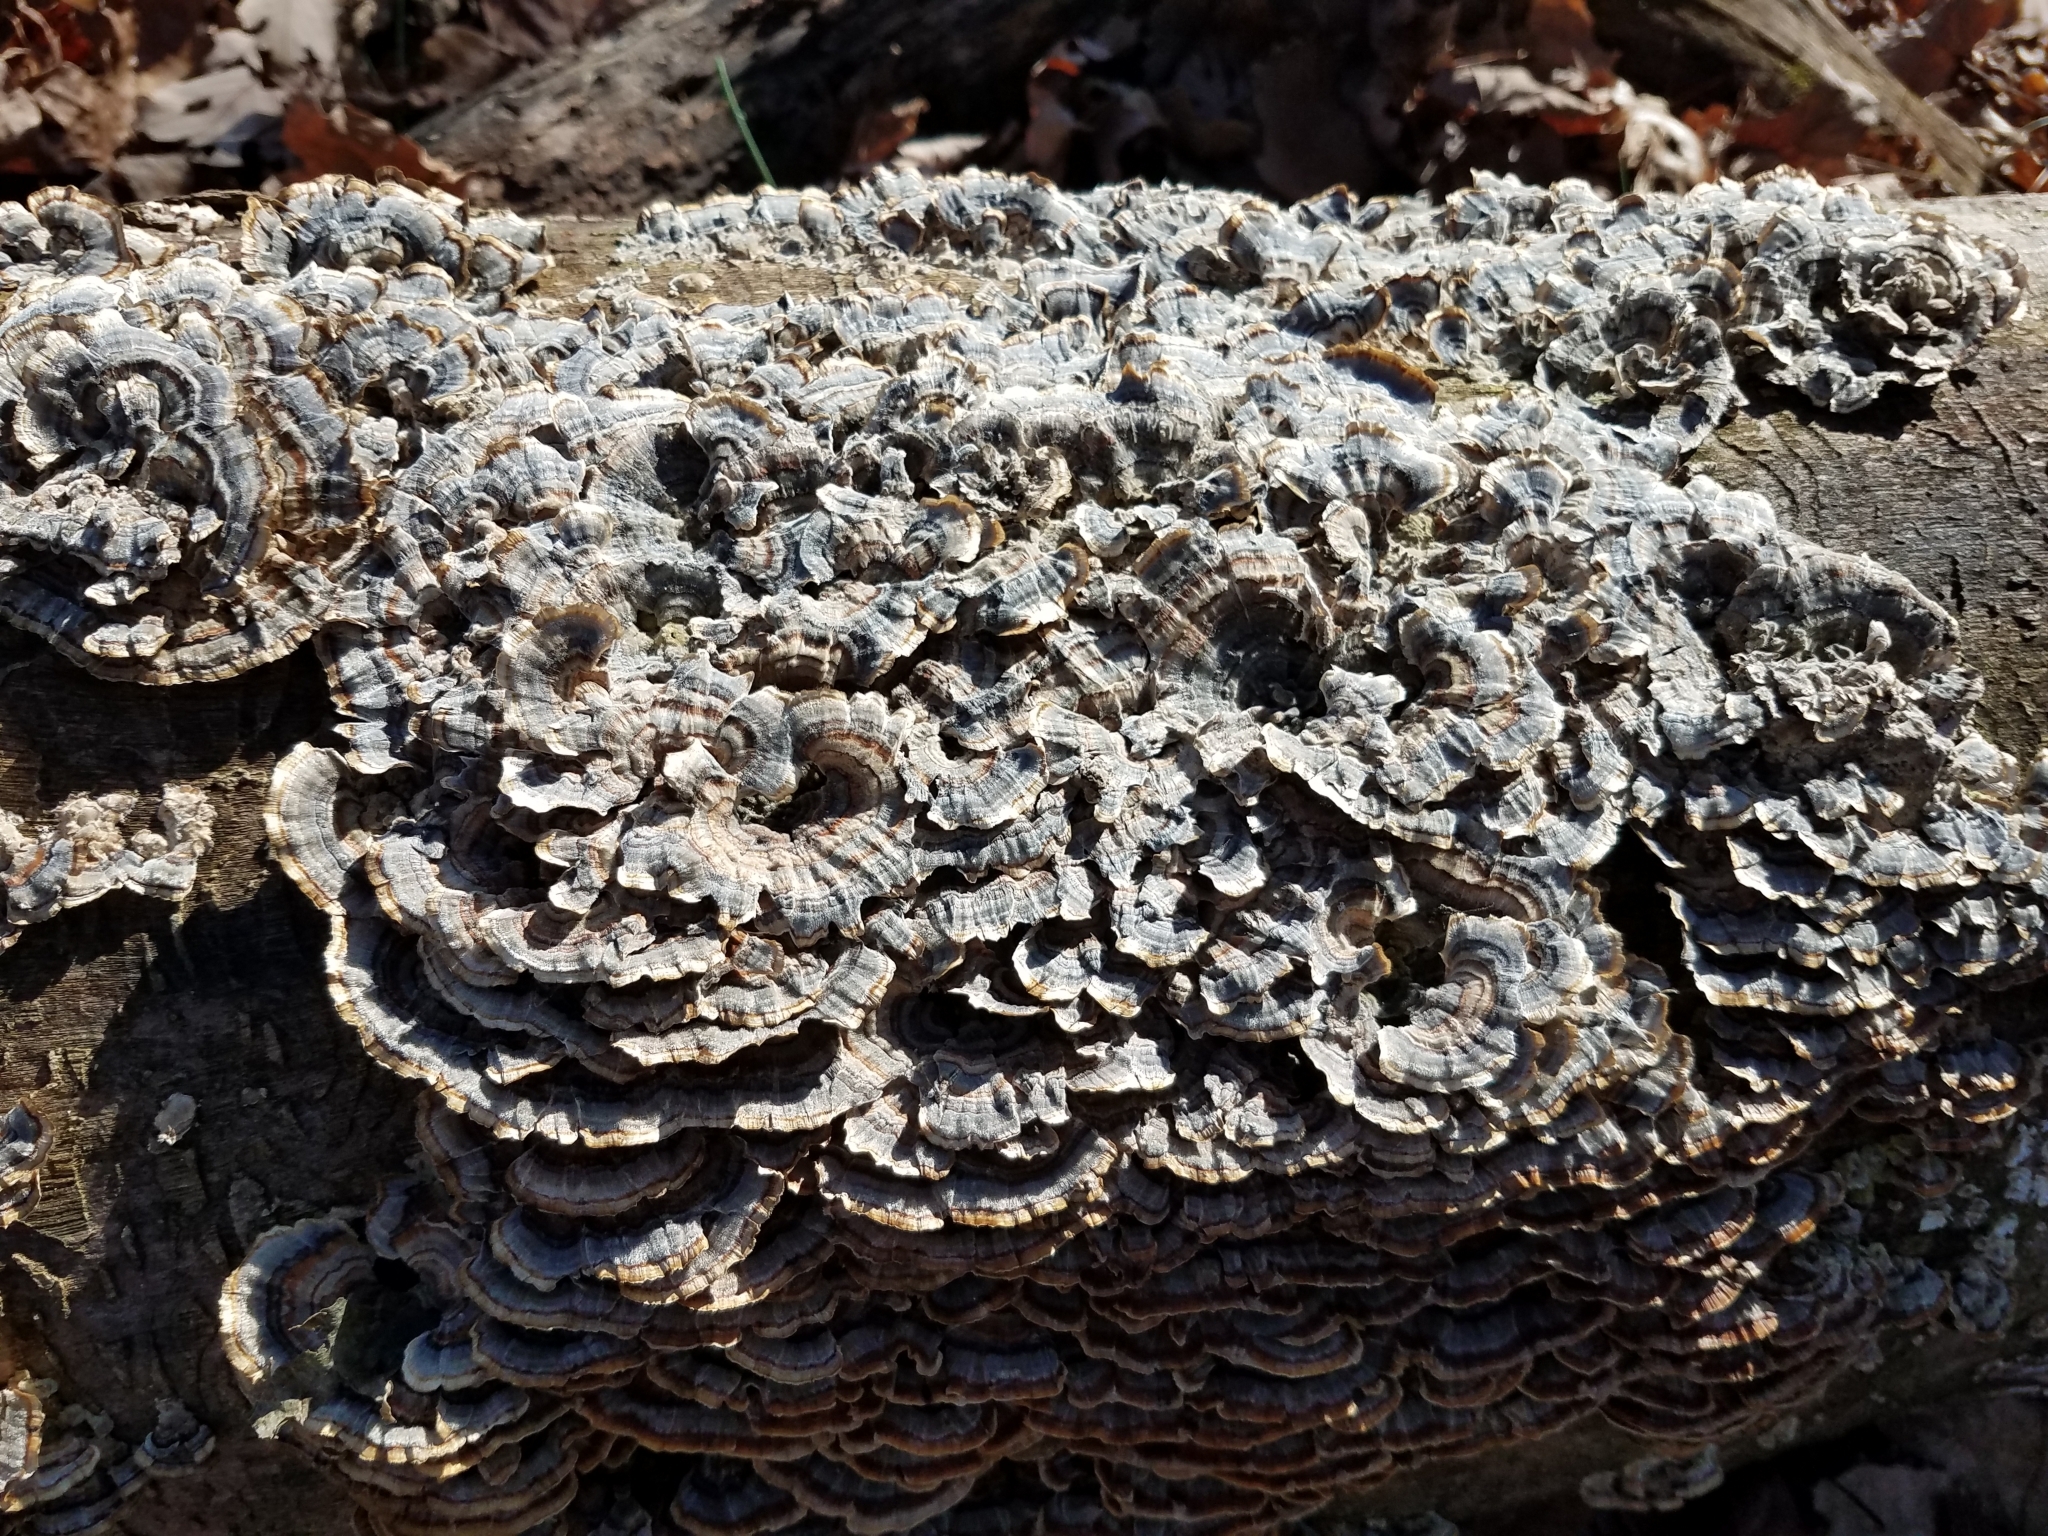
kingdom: Fungi
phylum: Basidiomycota
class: Agaricomycetes
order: Polyporales
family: Polyporaceae
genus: Trametes
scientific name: Trametes versicolor
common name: Turkeytail
